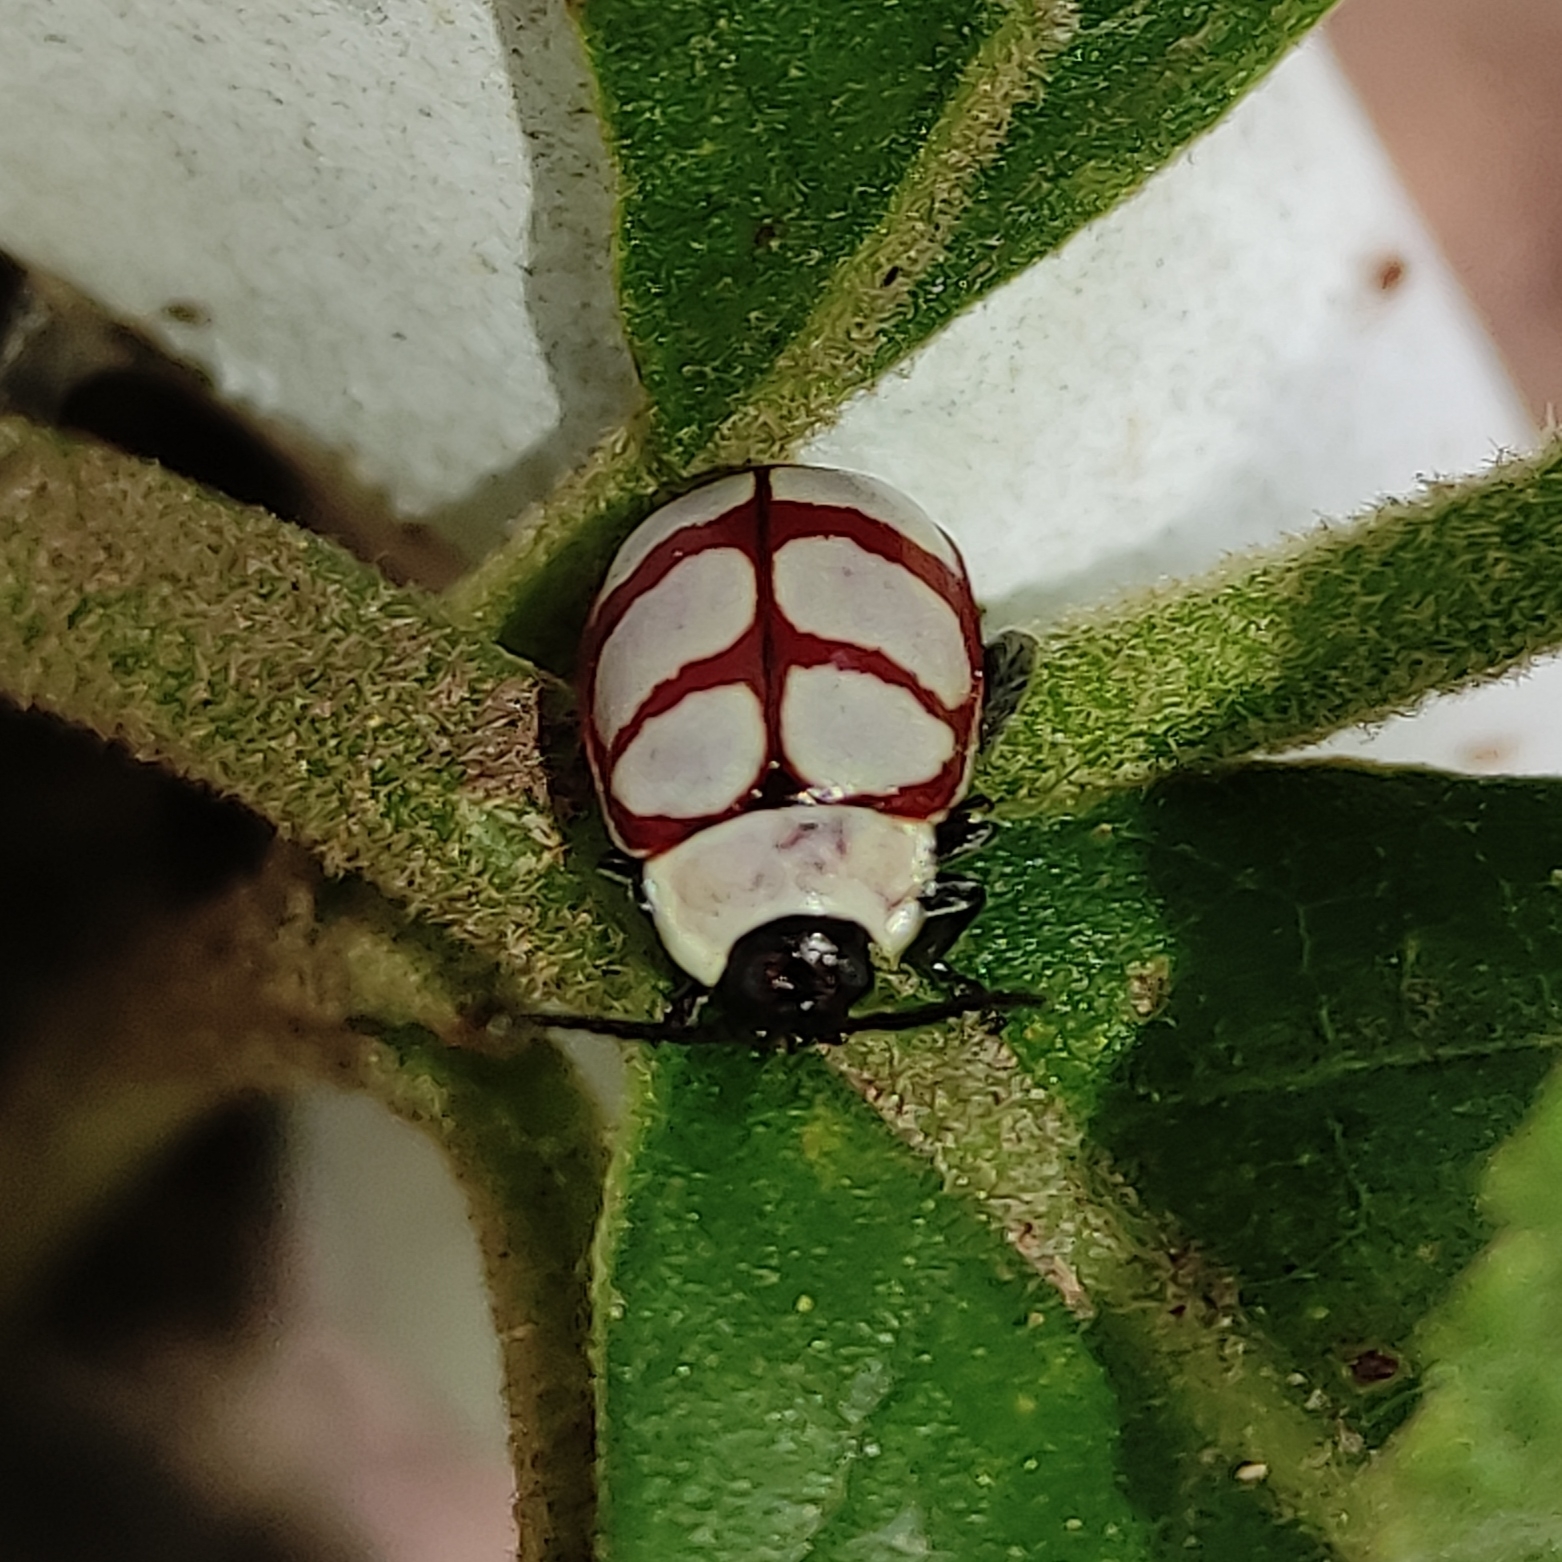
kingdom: Animalia
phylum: Arthropoda
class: Insecta
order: Coleoptera
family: Chrysomelidae
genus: Alagoasa
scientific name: Alagoasa decemguttata
